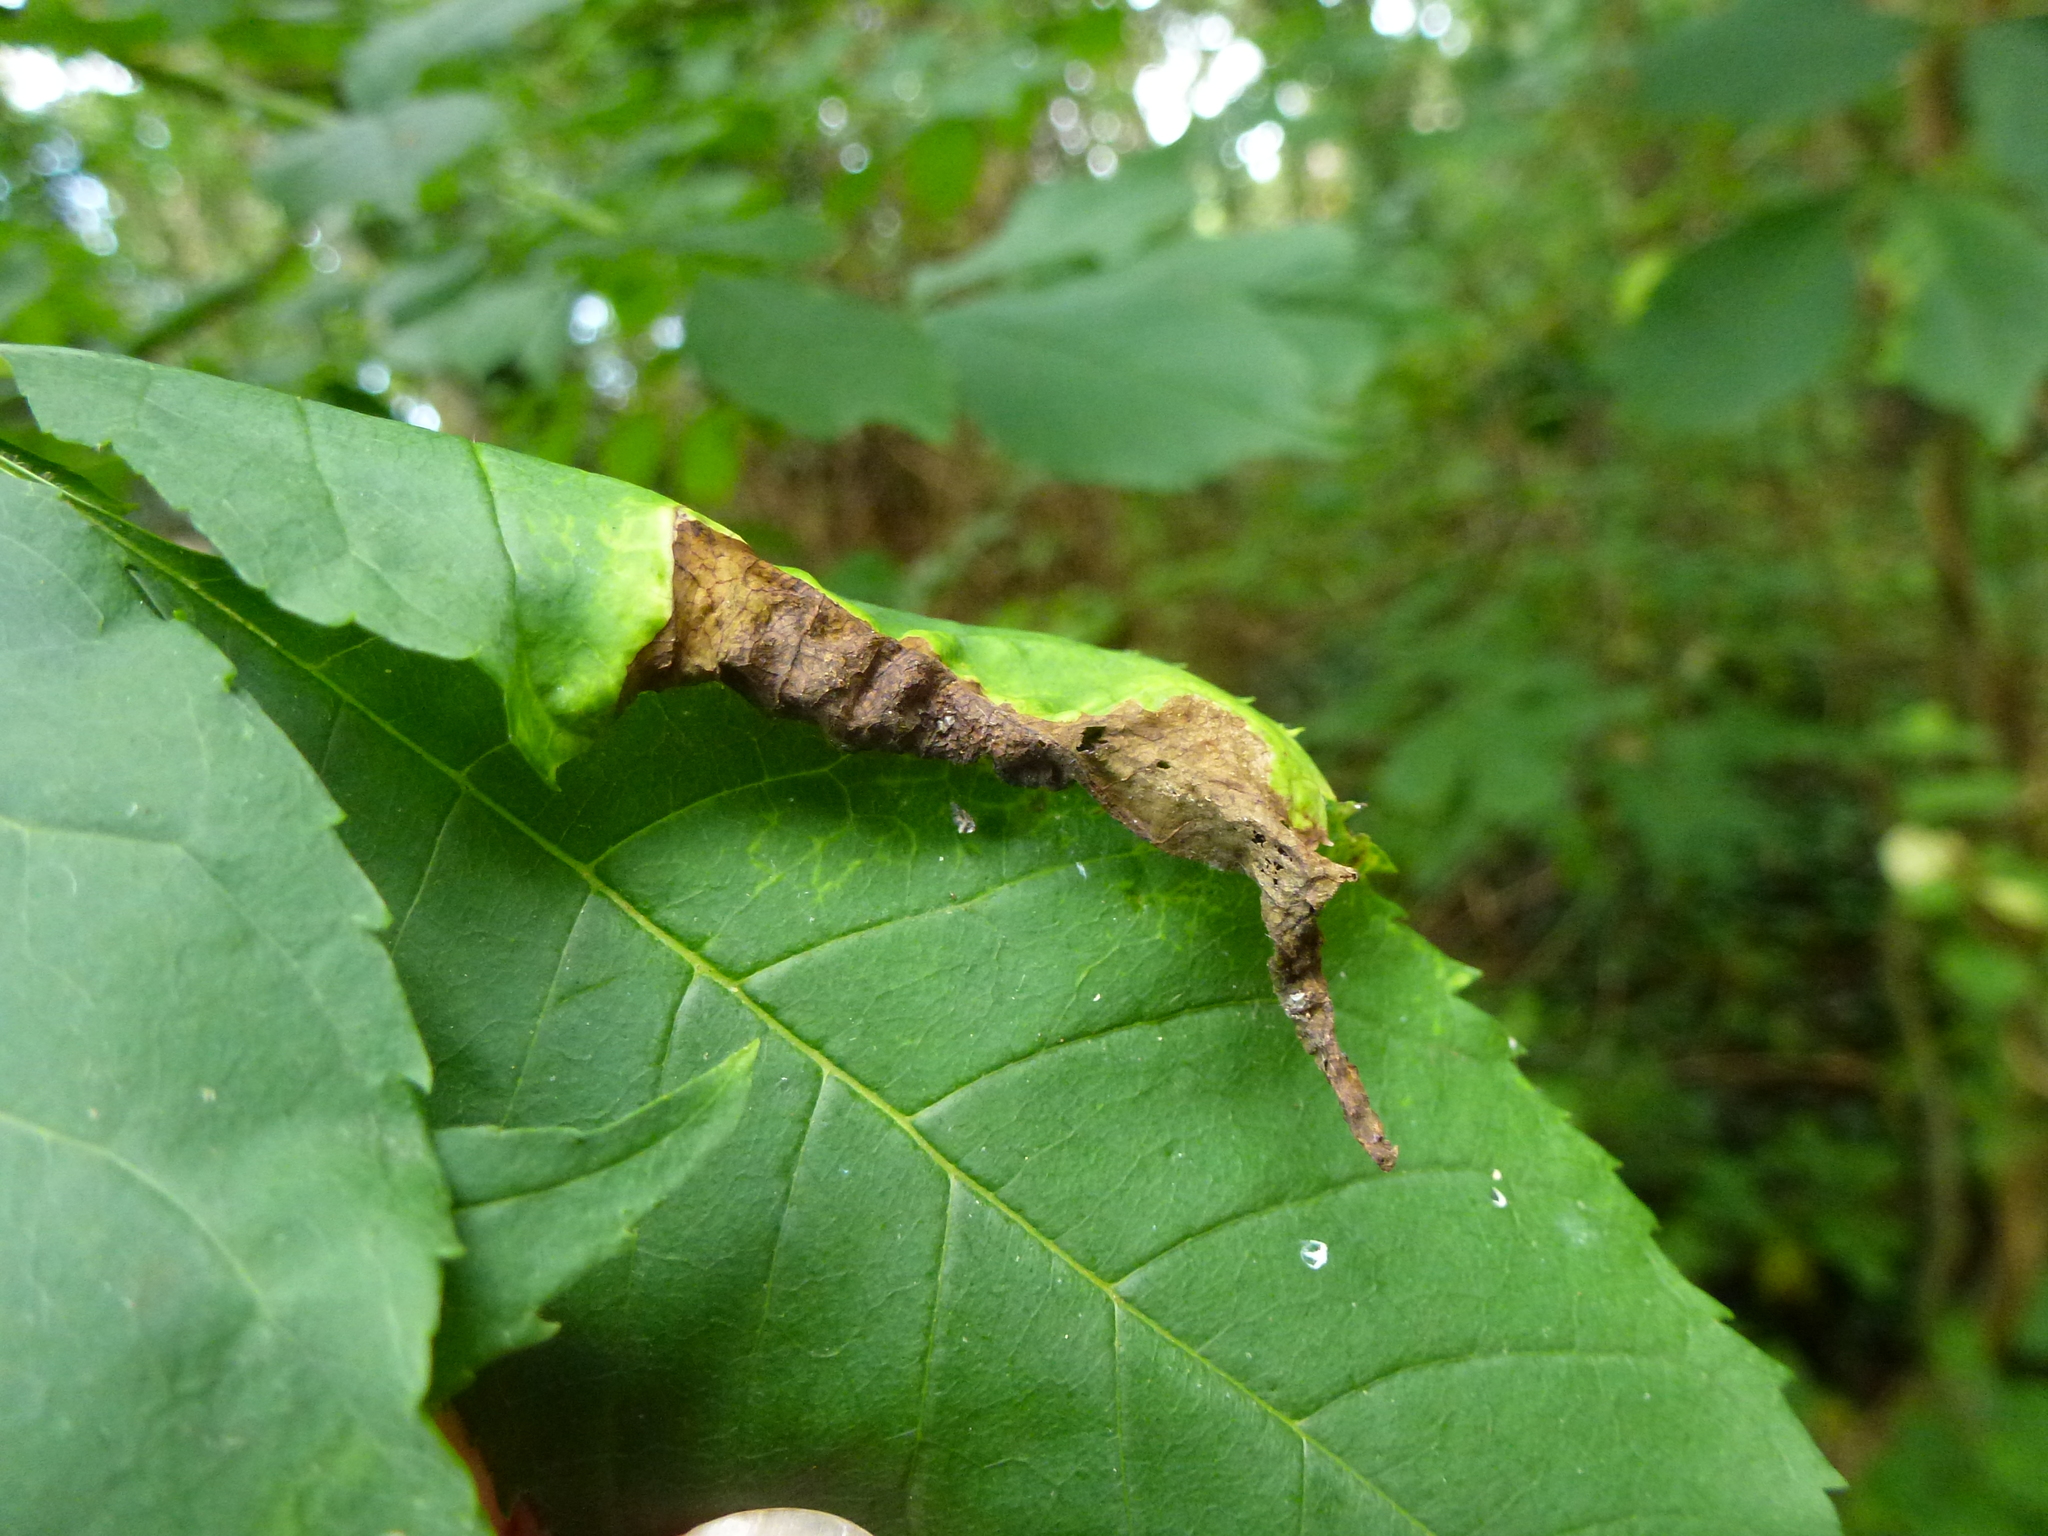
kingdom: Animalia
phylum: Arthropoda
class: Insecta
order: Hemiptera
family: Liviidae
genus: Psyllopsis
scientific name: Psyllopsis fraxini
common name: Jumping plant louse
